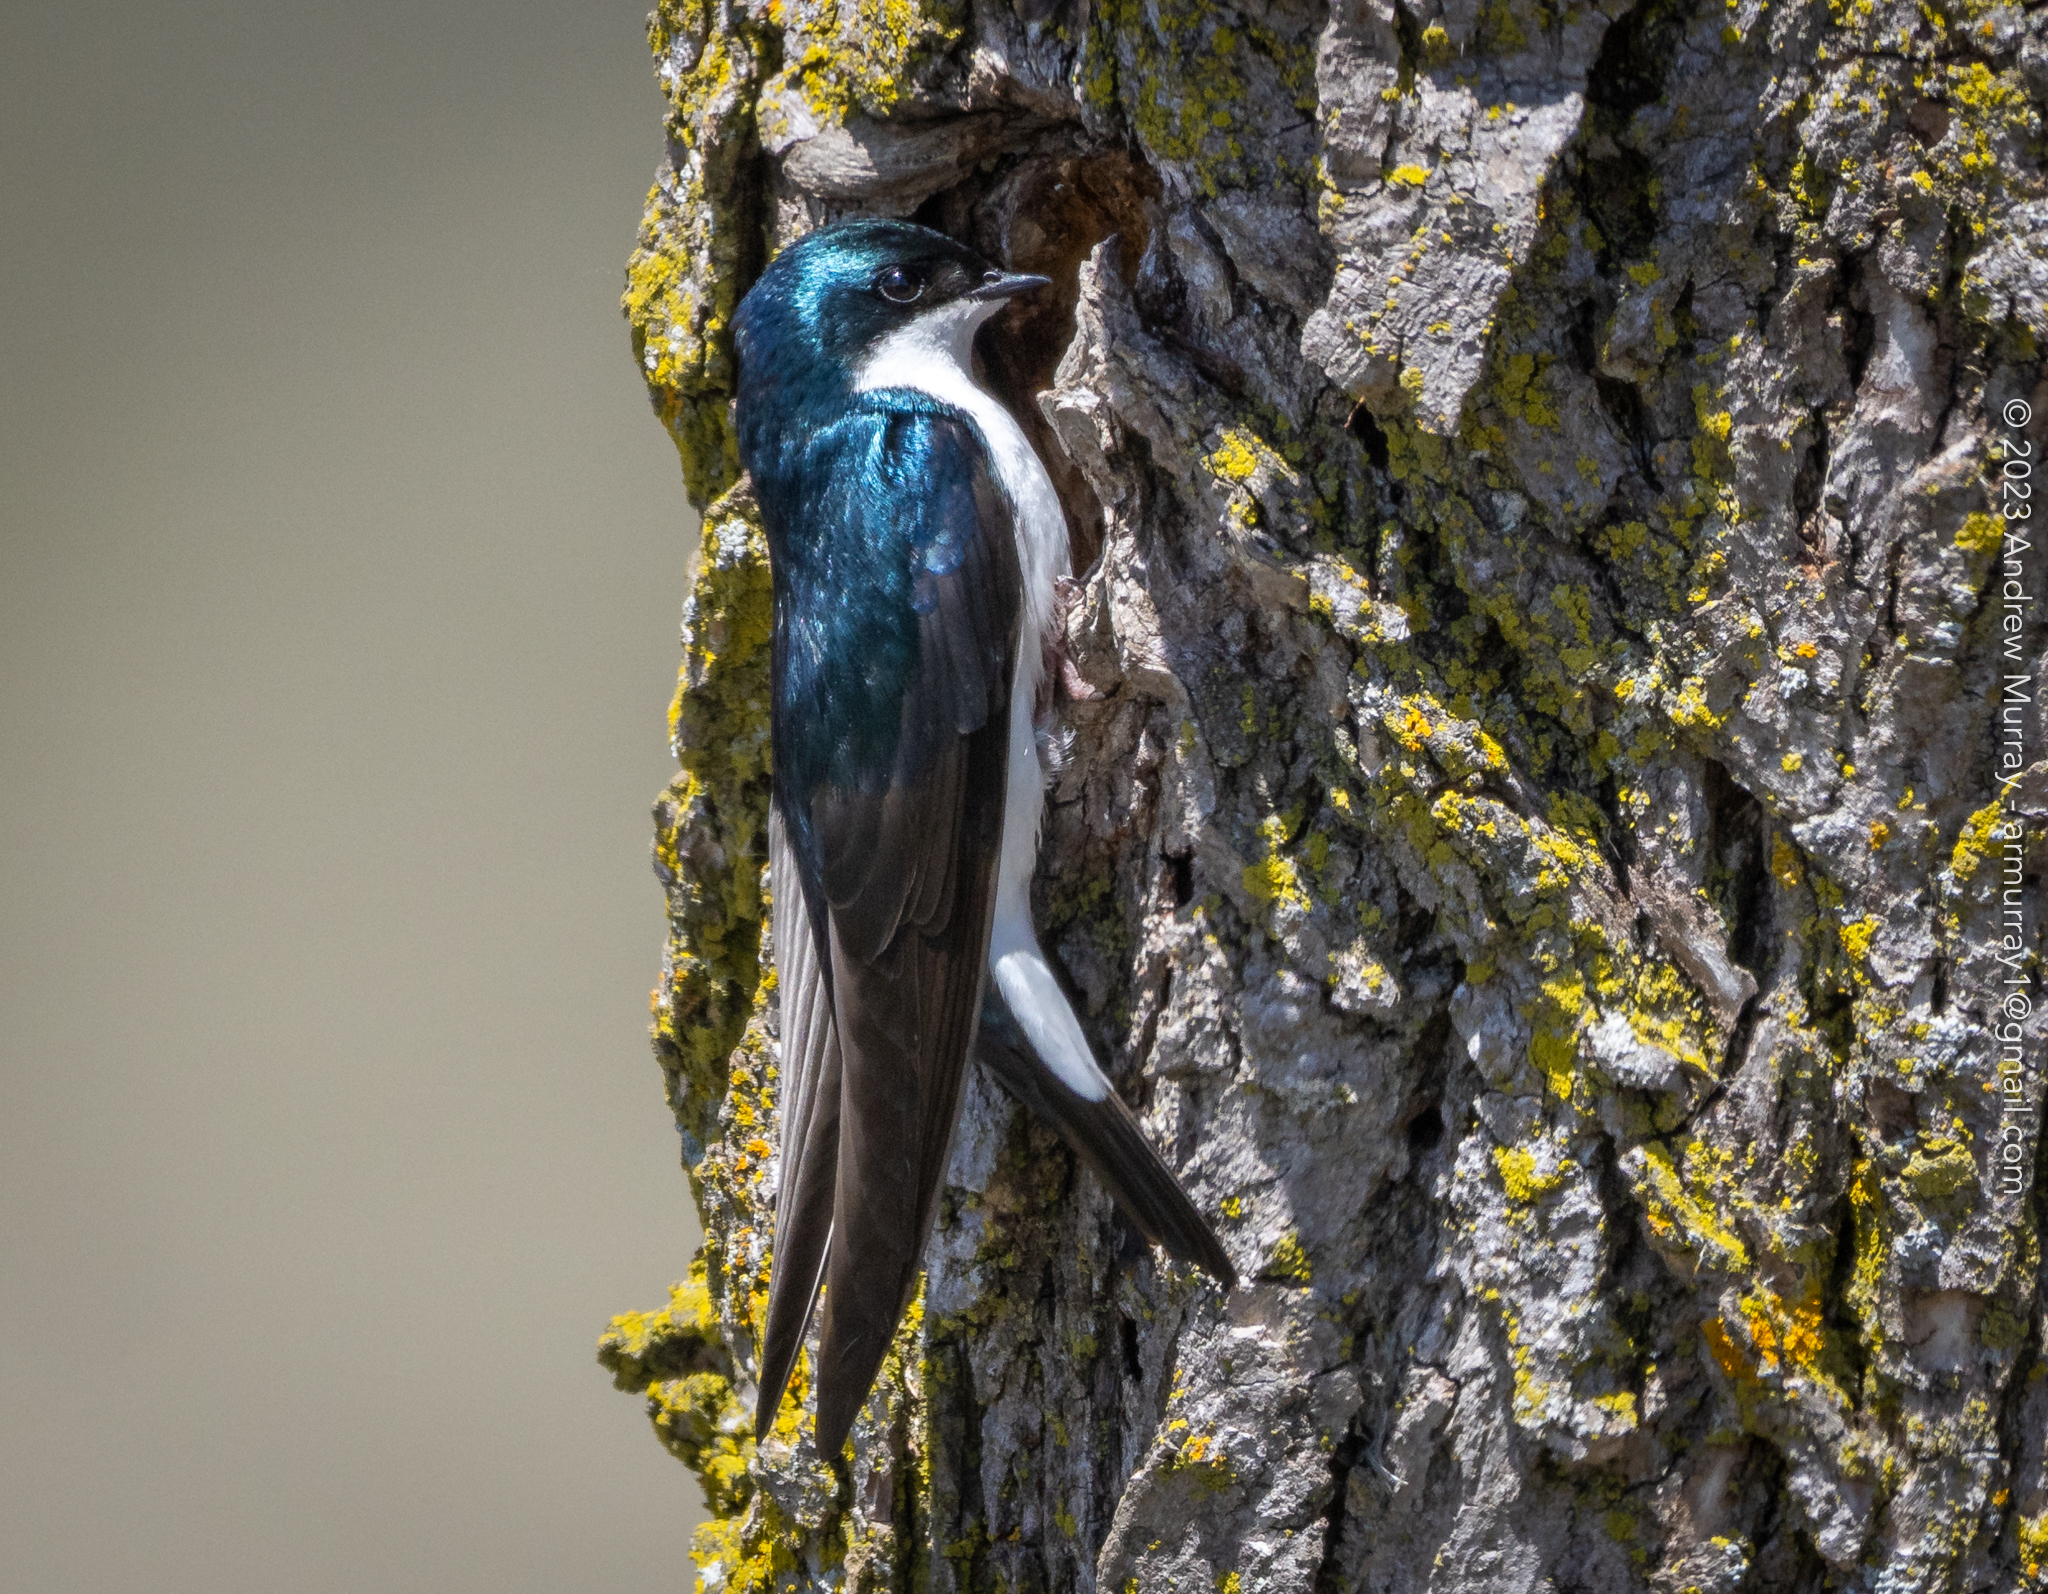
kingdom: Animalia
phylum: Chordata
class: Aves
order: Passeriformes
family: Hirundinidae
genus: Tachycineta
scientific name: Tachycineta bicolor
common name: Tree swallow
